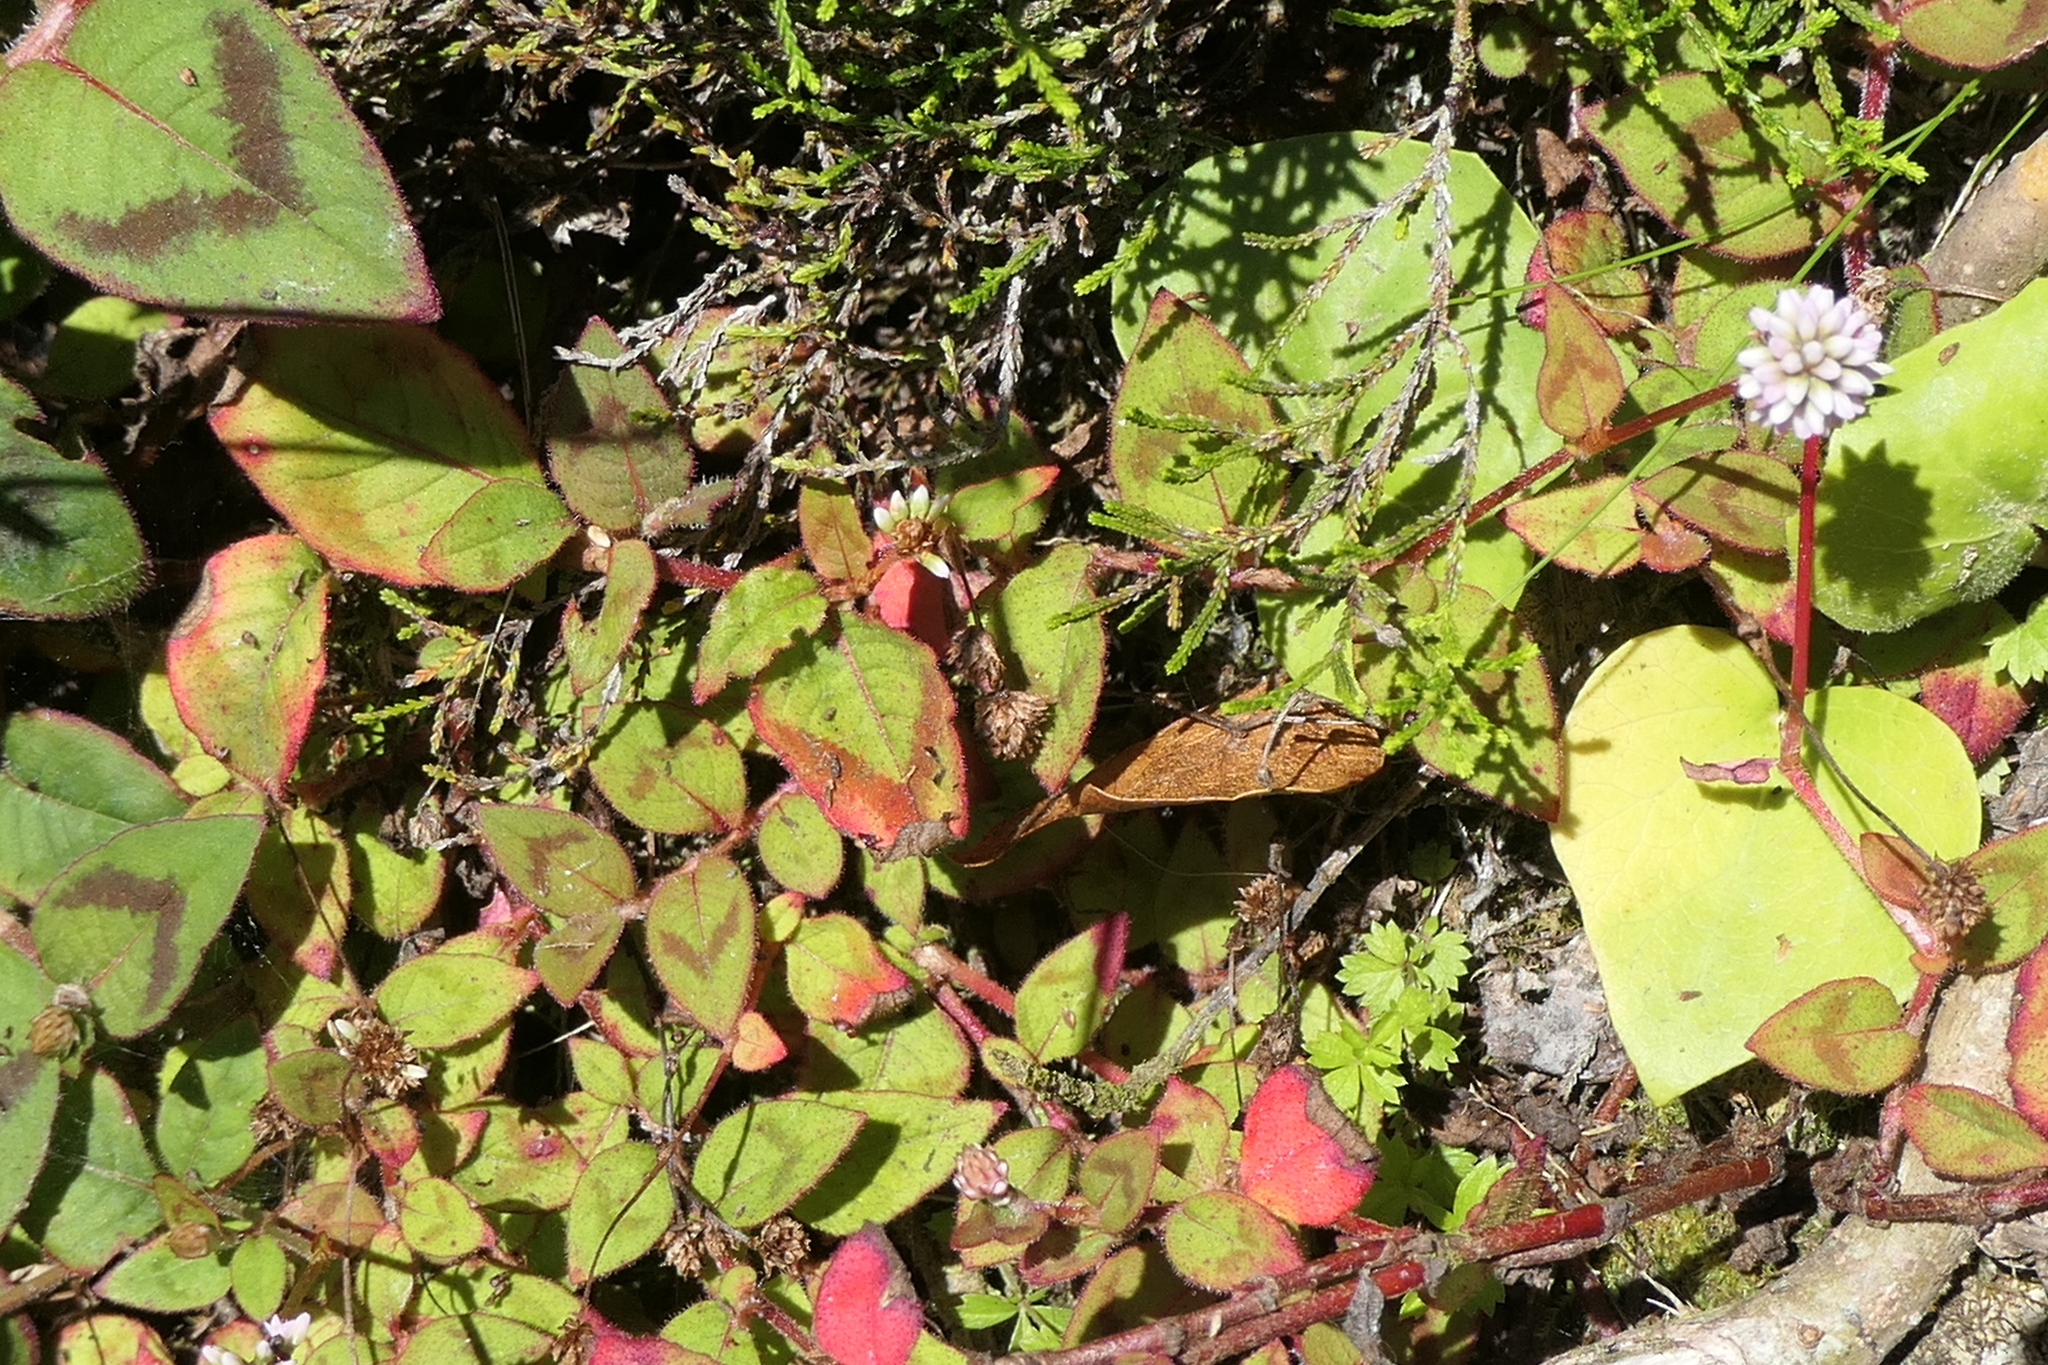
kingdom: Plantae
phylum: Tracheophyta
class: Magnoliopsida
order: Caryophyllales
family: Polygonaceae
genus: Persicaria
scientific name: Persicaria capitata
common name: Pinkhead smartweed
